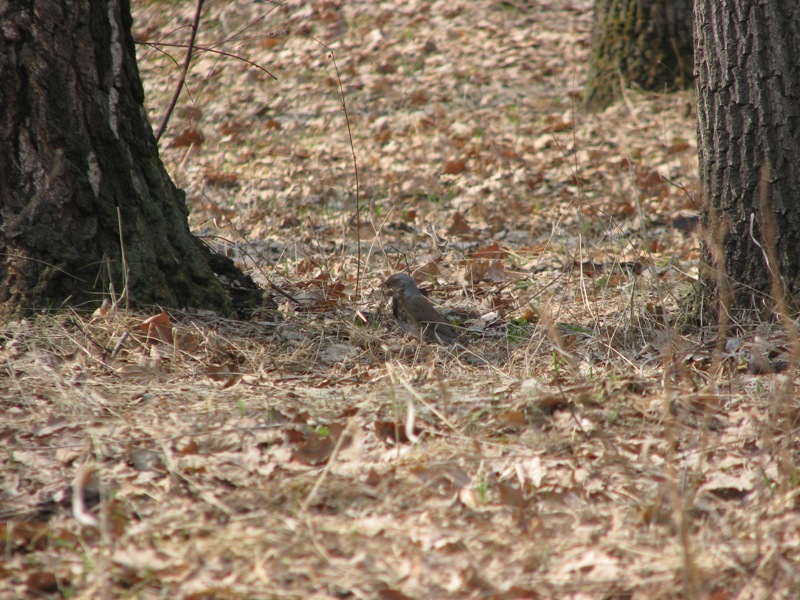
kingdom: Animalia
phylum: Chordata
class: Aves
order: Passeriformes
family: Turdidae
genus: Turdus
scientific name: Turdus pilaris
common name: Fieldfare
